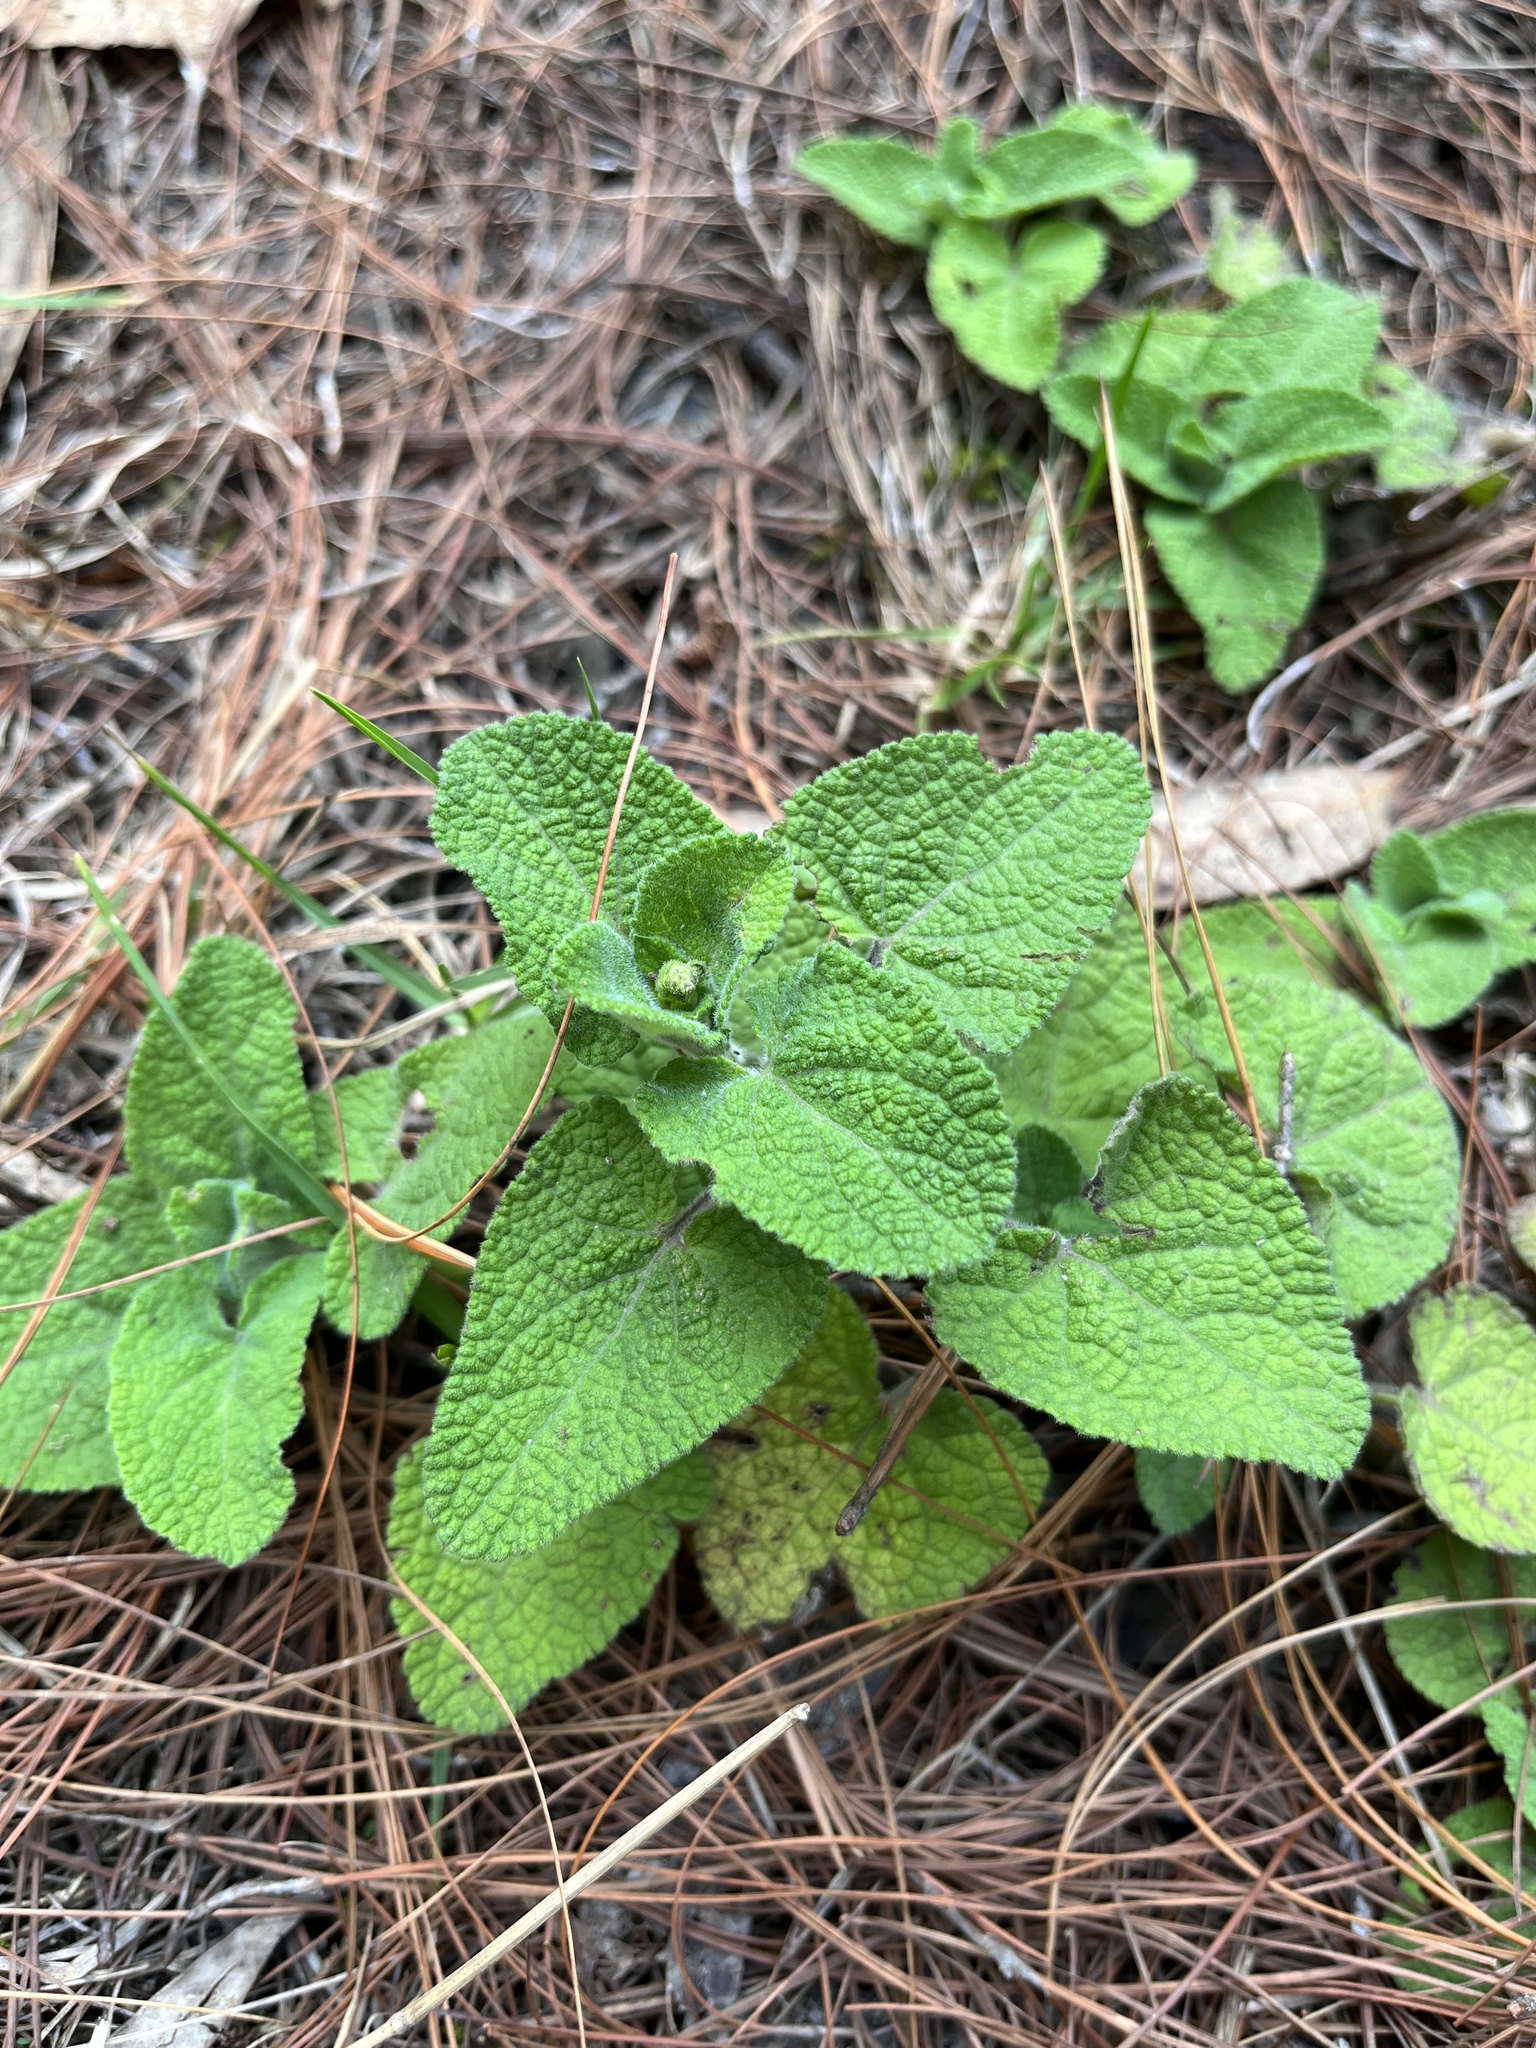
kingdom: Plantae
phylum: Tracheophyta
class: Magnoliopsida
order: Lamiales
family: Lamiaceae
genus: Salvia
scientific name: Salvia palifolia
